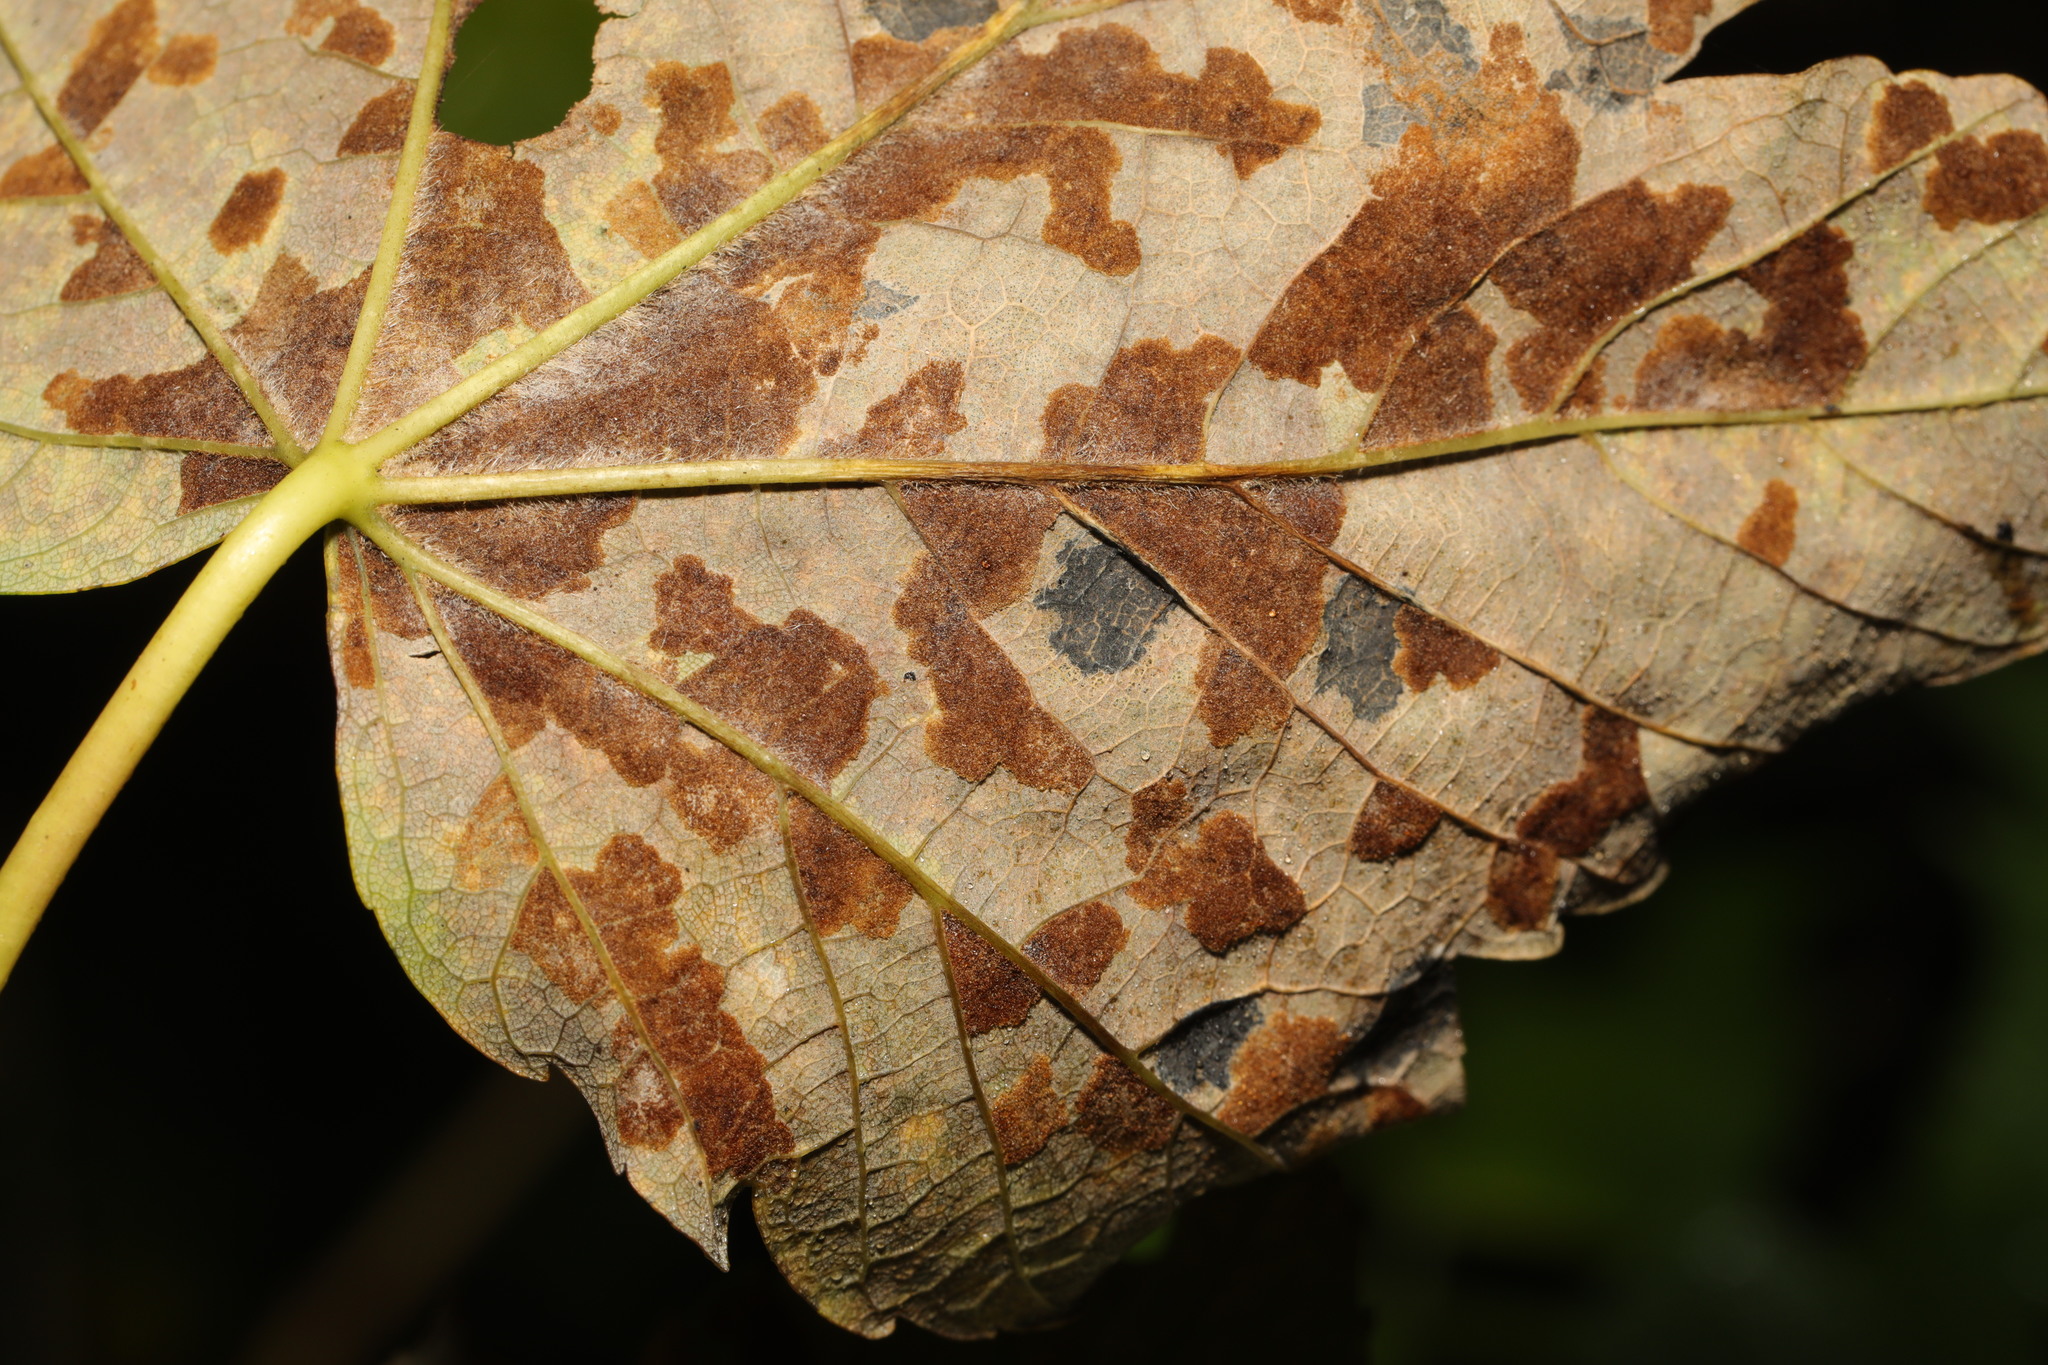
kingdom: Animalia
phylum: Arthropoda
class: Arachnida
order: Trombidiformes
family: Eriophyidae
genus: Aceria
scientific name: Aceria pseudoplatani
